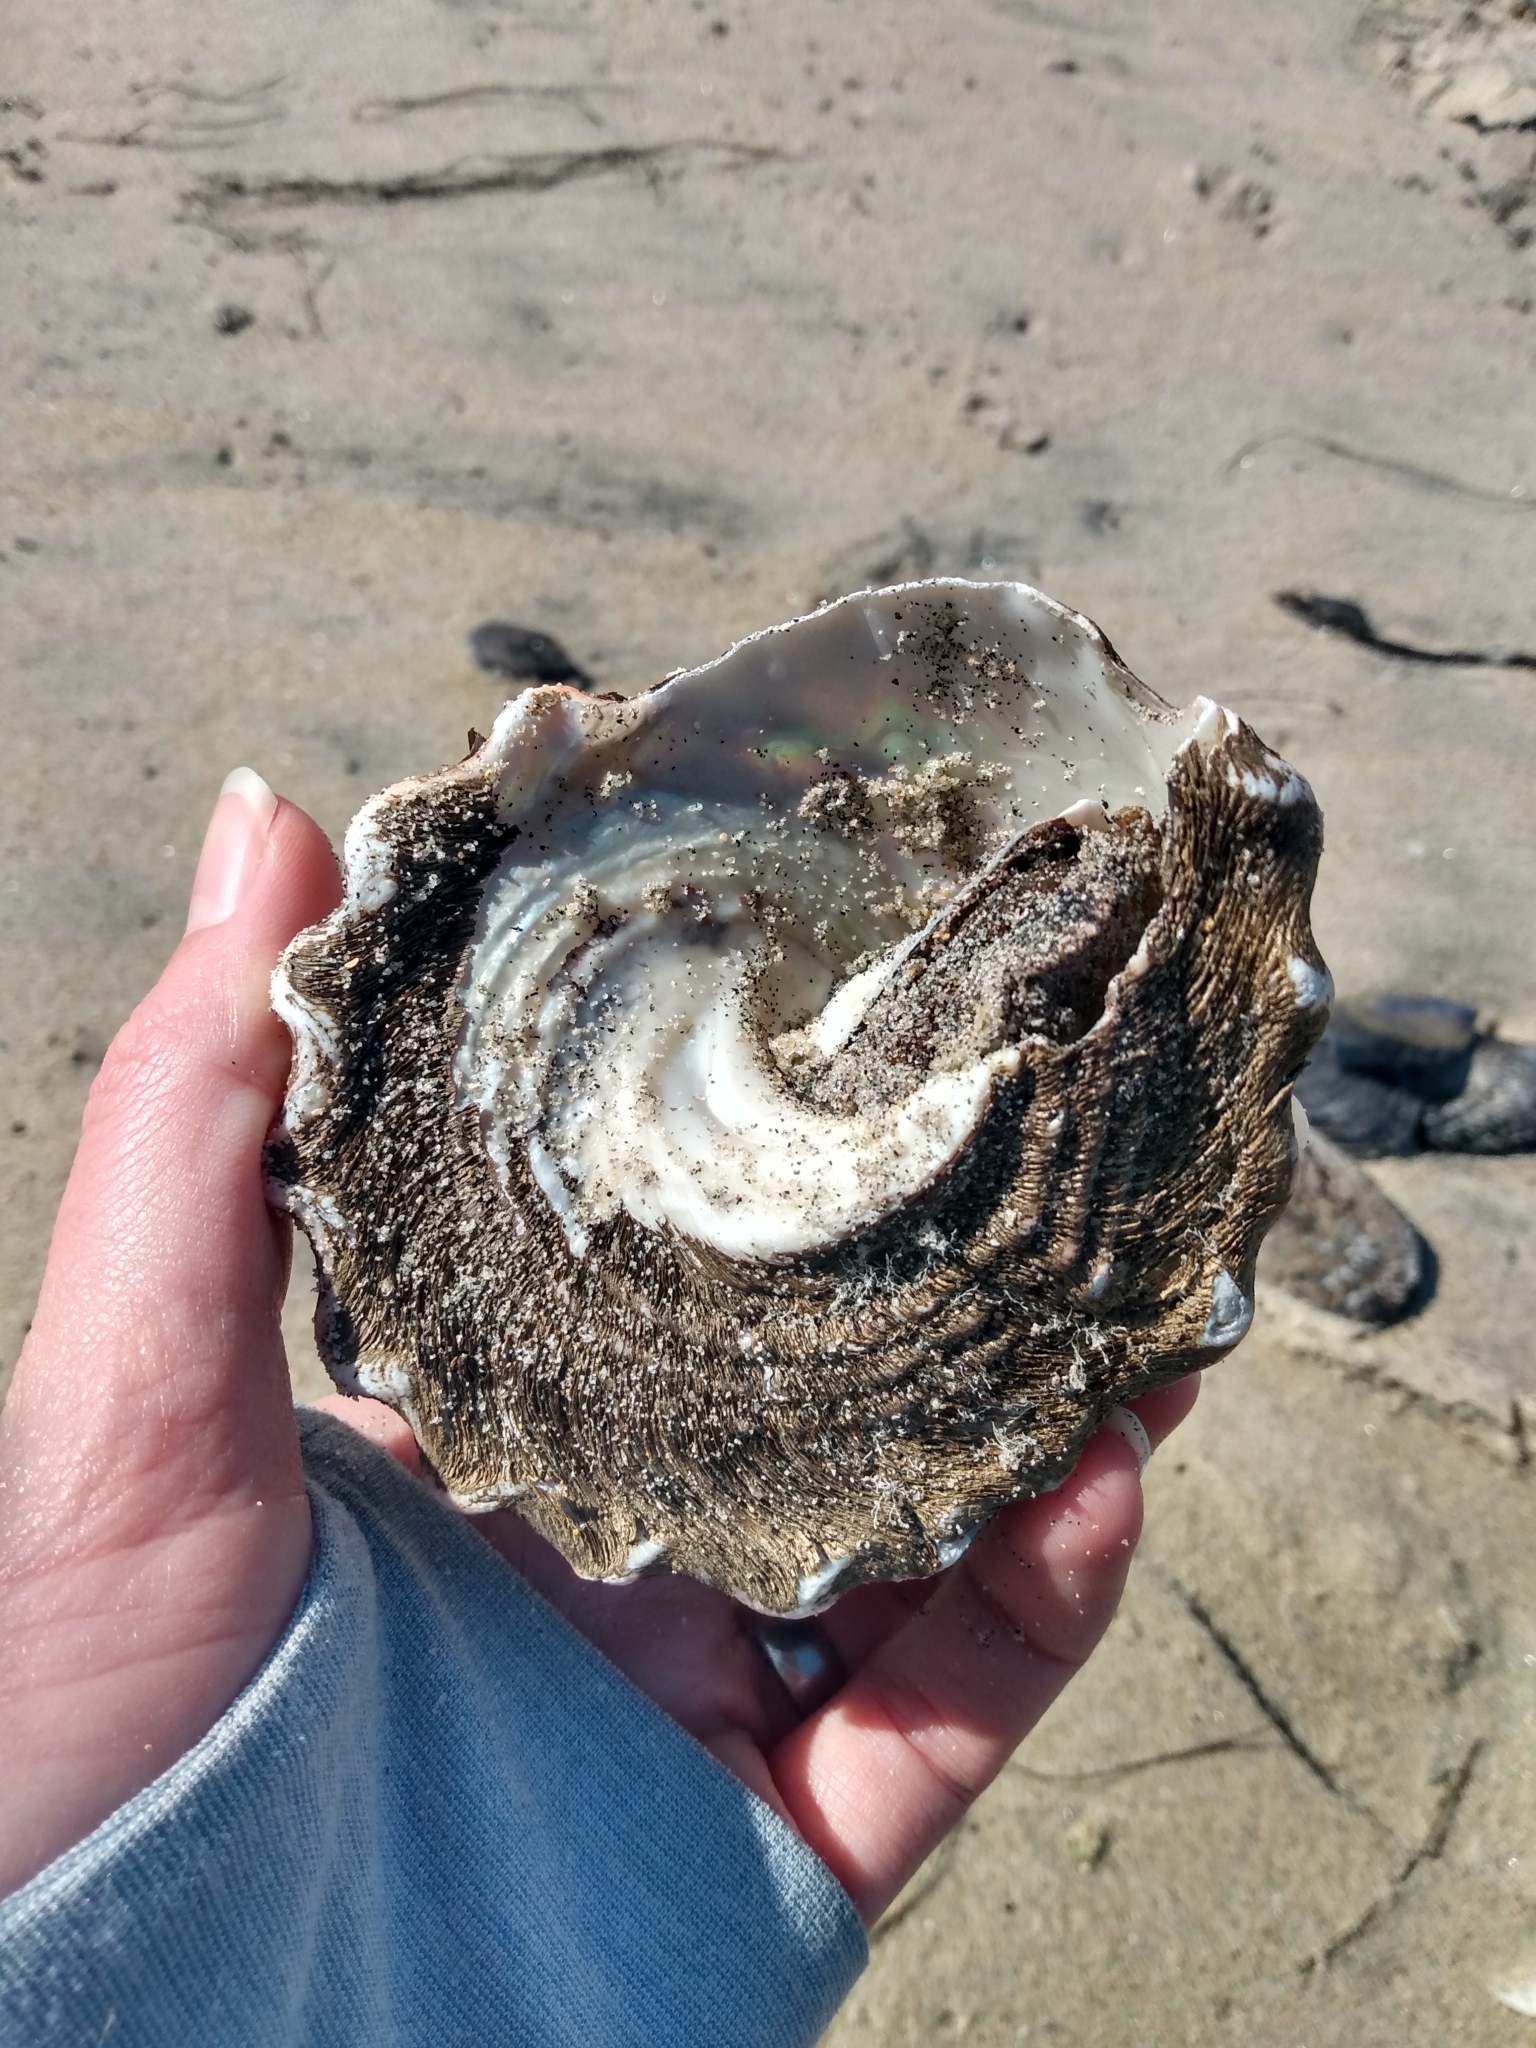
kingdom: Animalia
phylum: Mollusca
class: Gastropoda
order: Trochida
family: Turbinidae
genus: Megastraea
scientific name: Megastraea undosa
